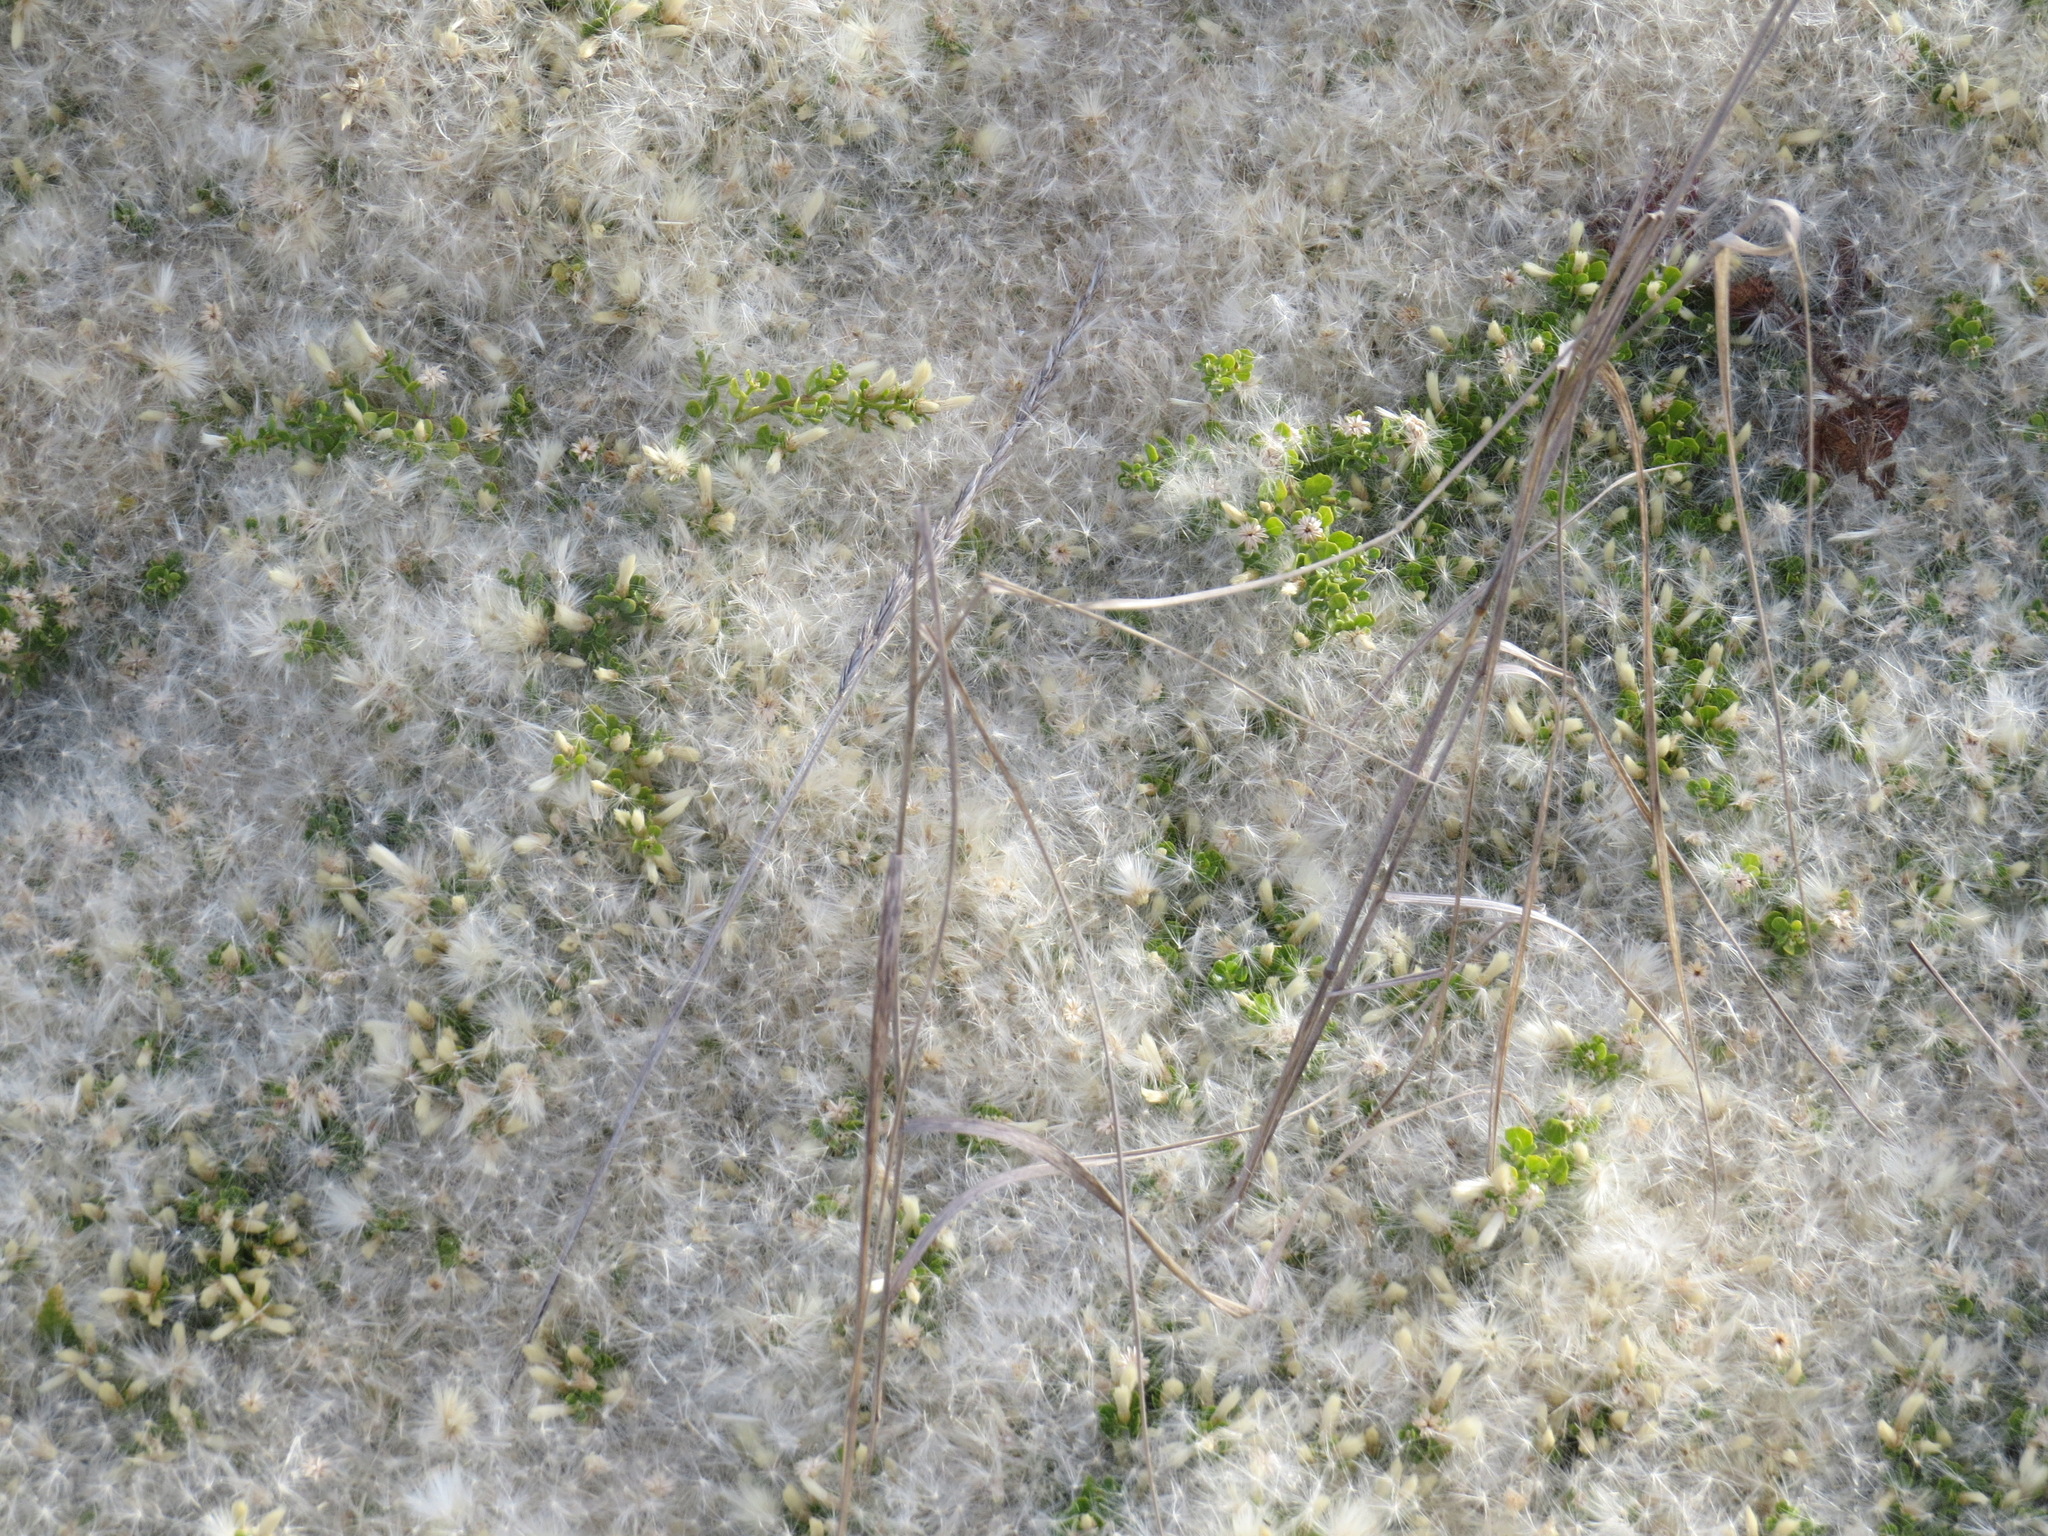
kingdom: Plantae
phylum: Tracheophyta
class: Magnoliopsida
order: Asterales
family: Asteraceae
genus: Baccharis
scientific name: Baccharis pilularis
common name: Coyotebrush
